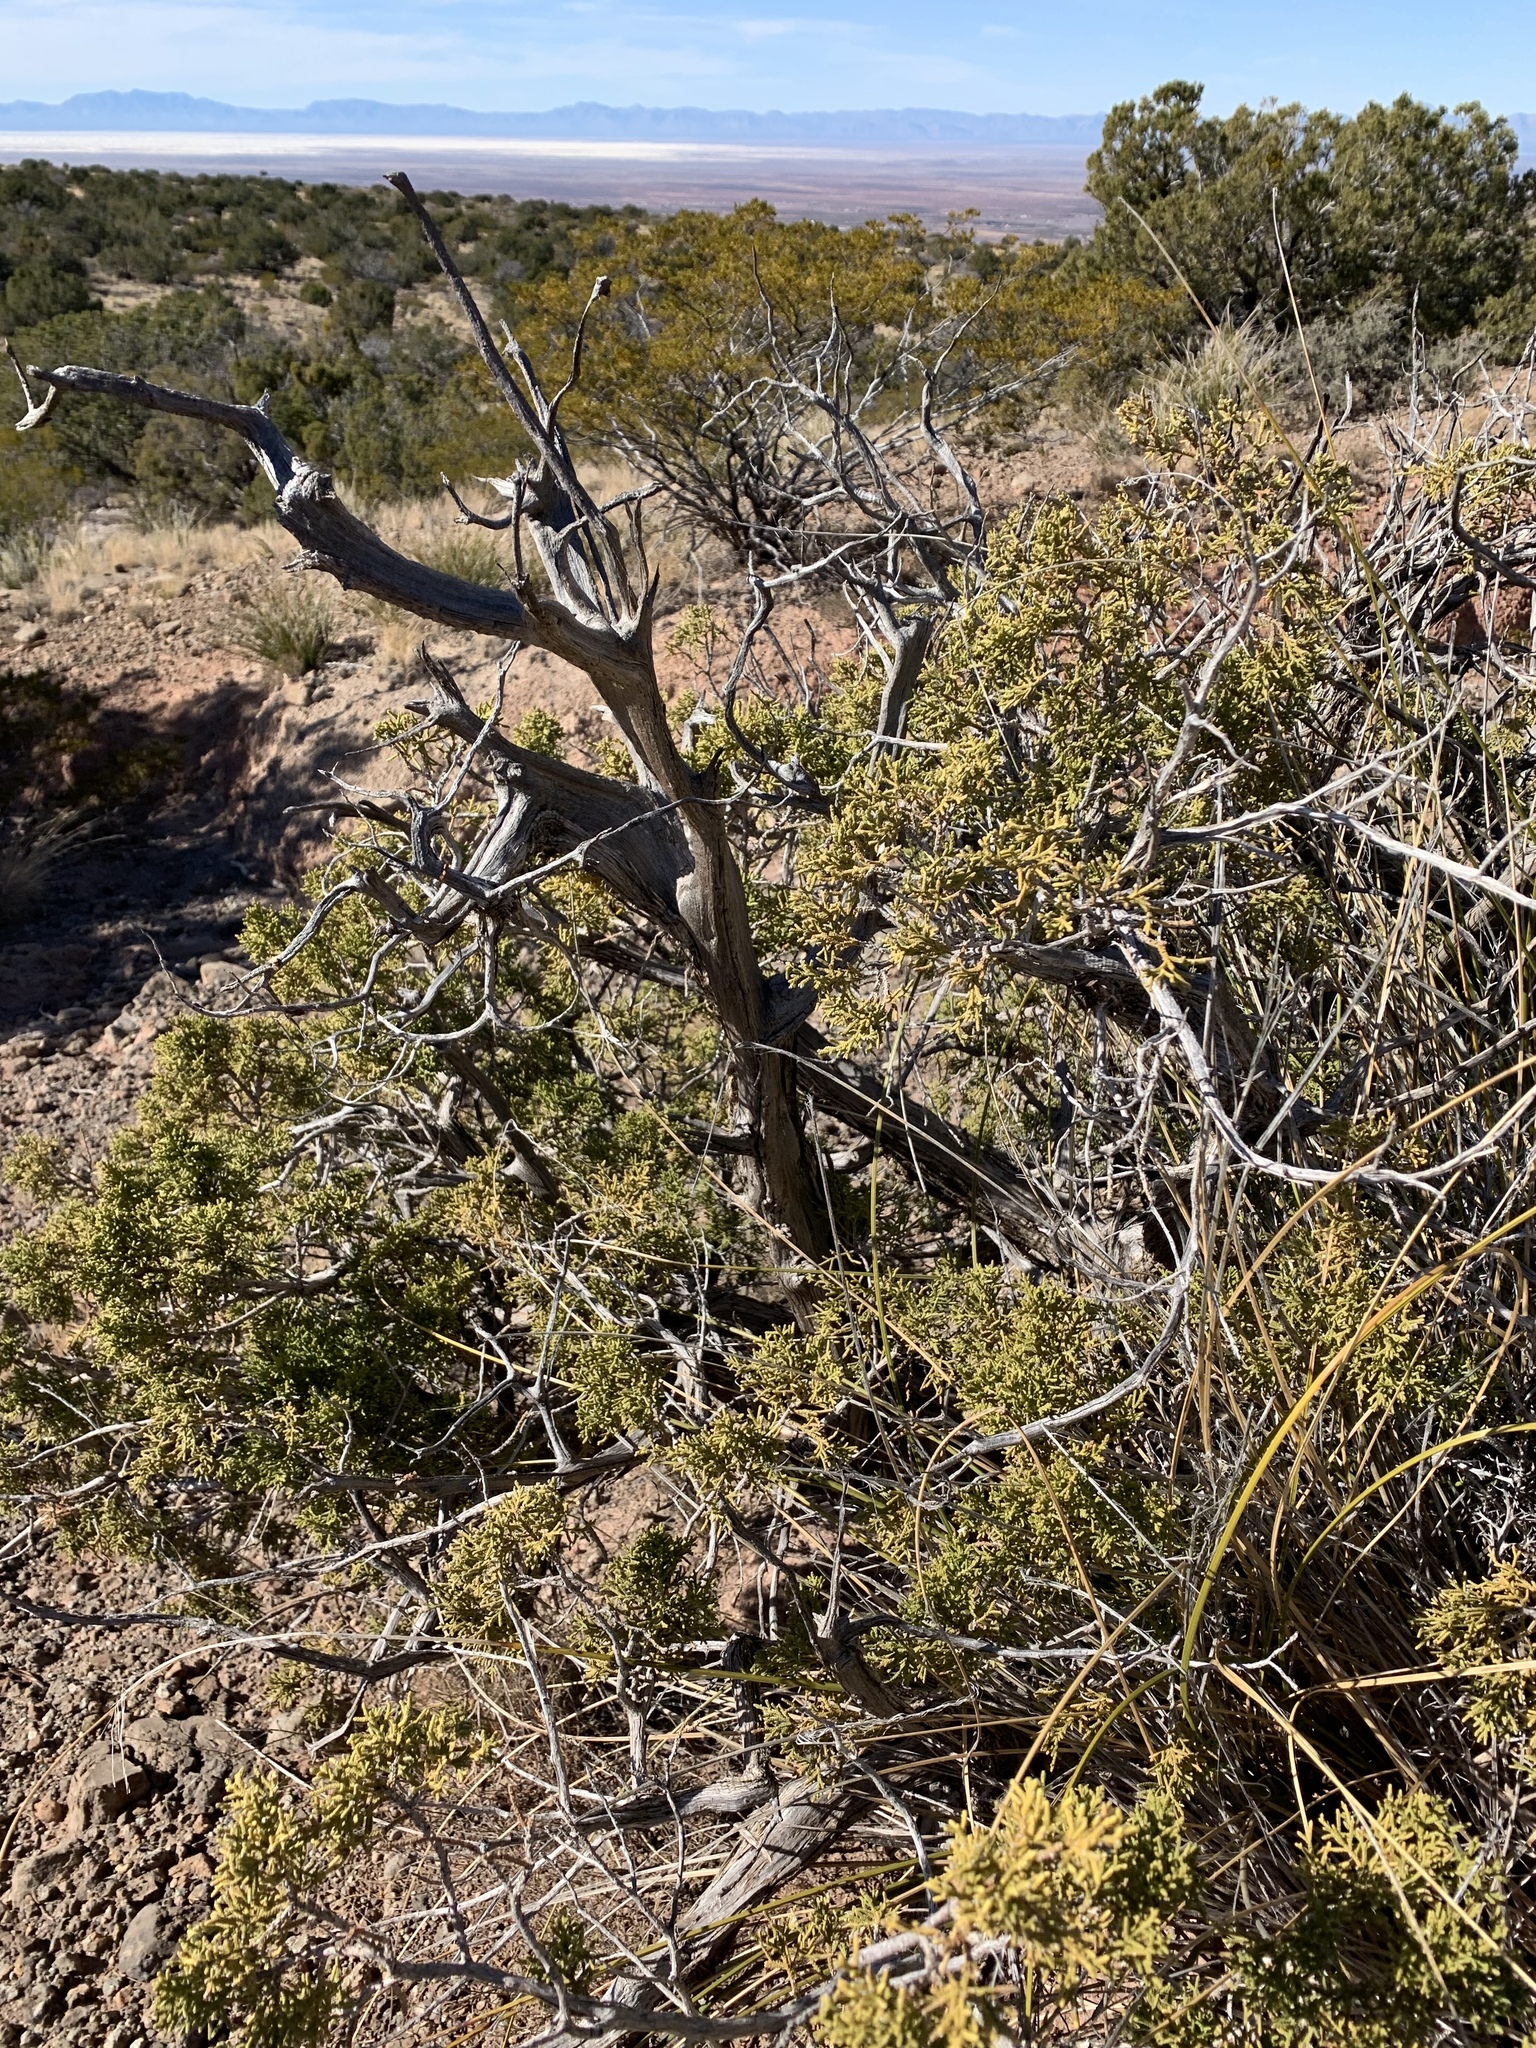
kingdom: Plantae
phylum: Tracheophyta
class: Pinopsida
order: Pinales
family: Cupressaceae
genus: Juniperus
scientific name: Juniperus monosperma
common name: One-seed juniper
